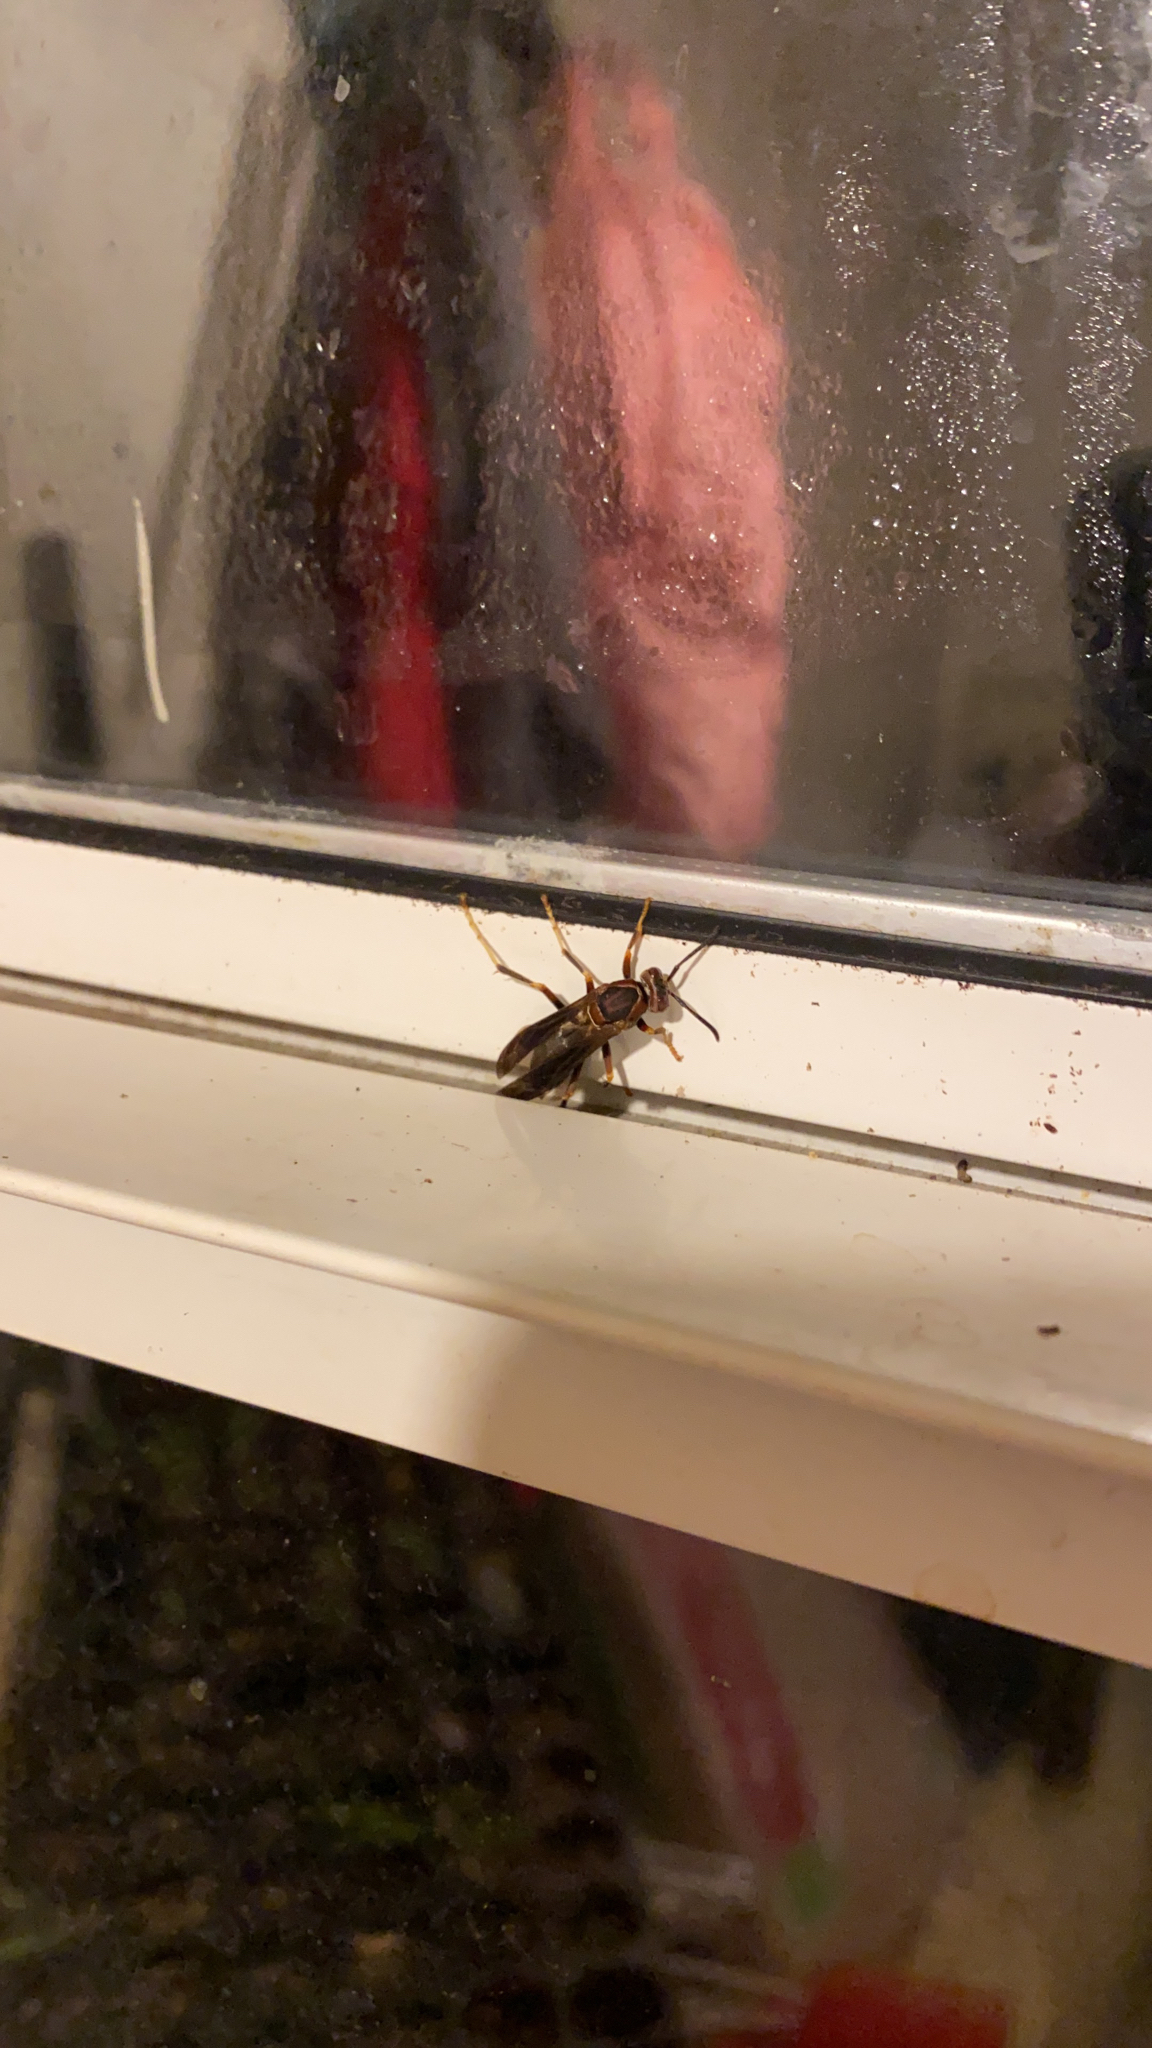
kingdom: Animalia
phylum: Arthropoda
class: Insecta
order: Hymenoptera
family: Vespidae
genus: Fuscopolistes
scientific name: Fuscopolistes
